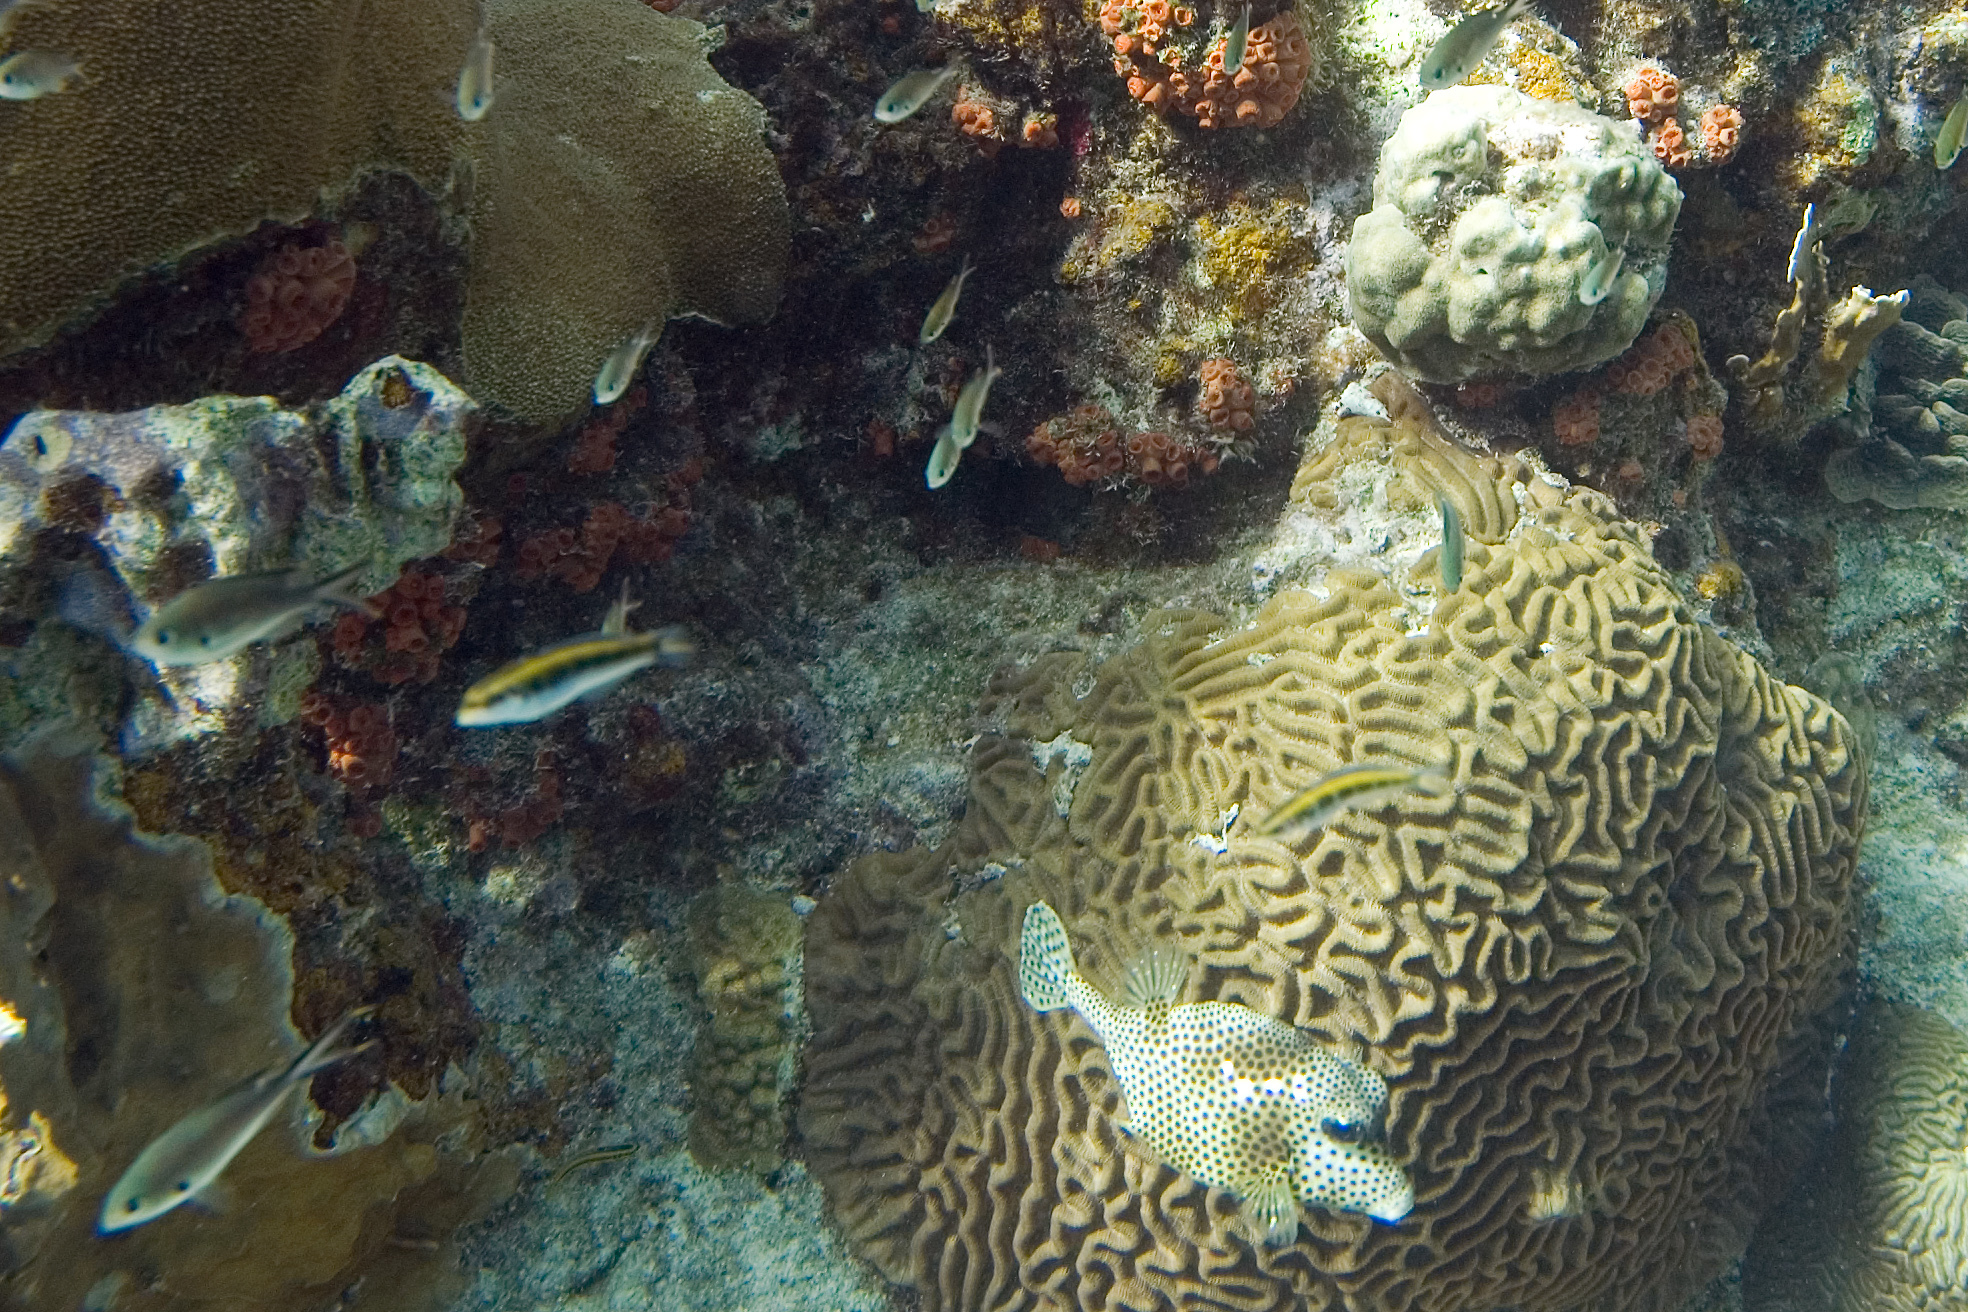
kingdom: Animalia
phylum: Chordata
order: Tetraodontiformes
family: Ostraciidae
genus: Lactophrys
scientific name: Lactophrys bicaudalis
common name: Spotted trunkfish
